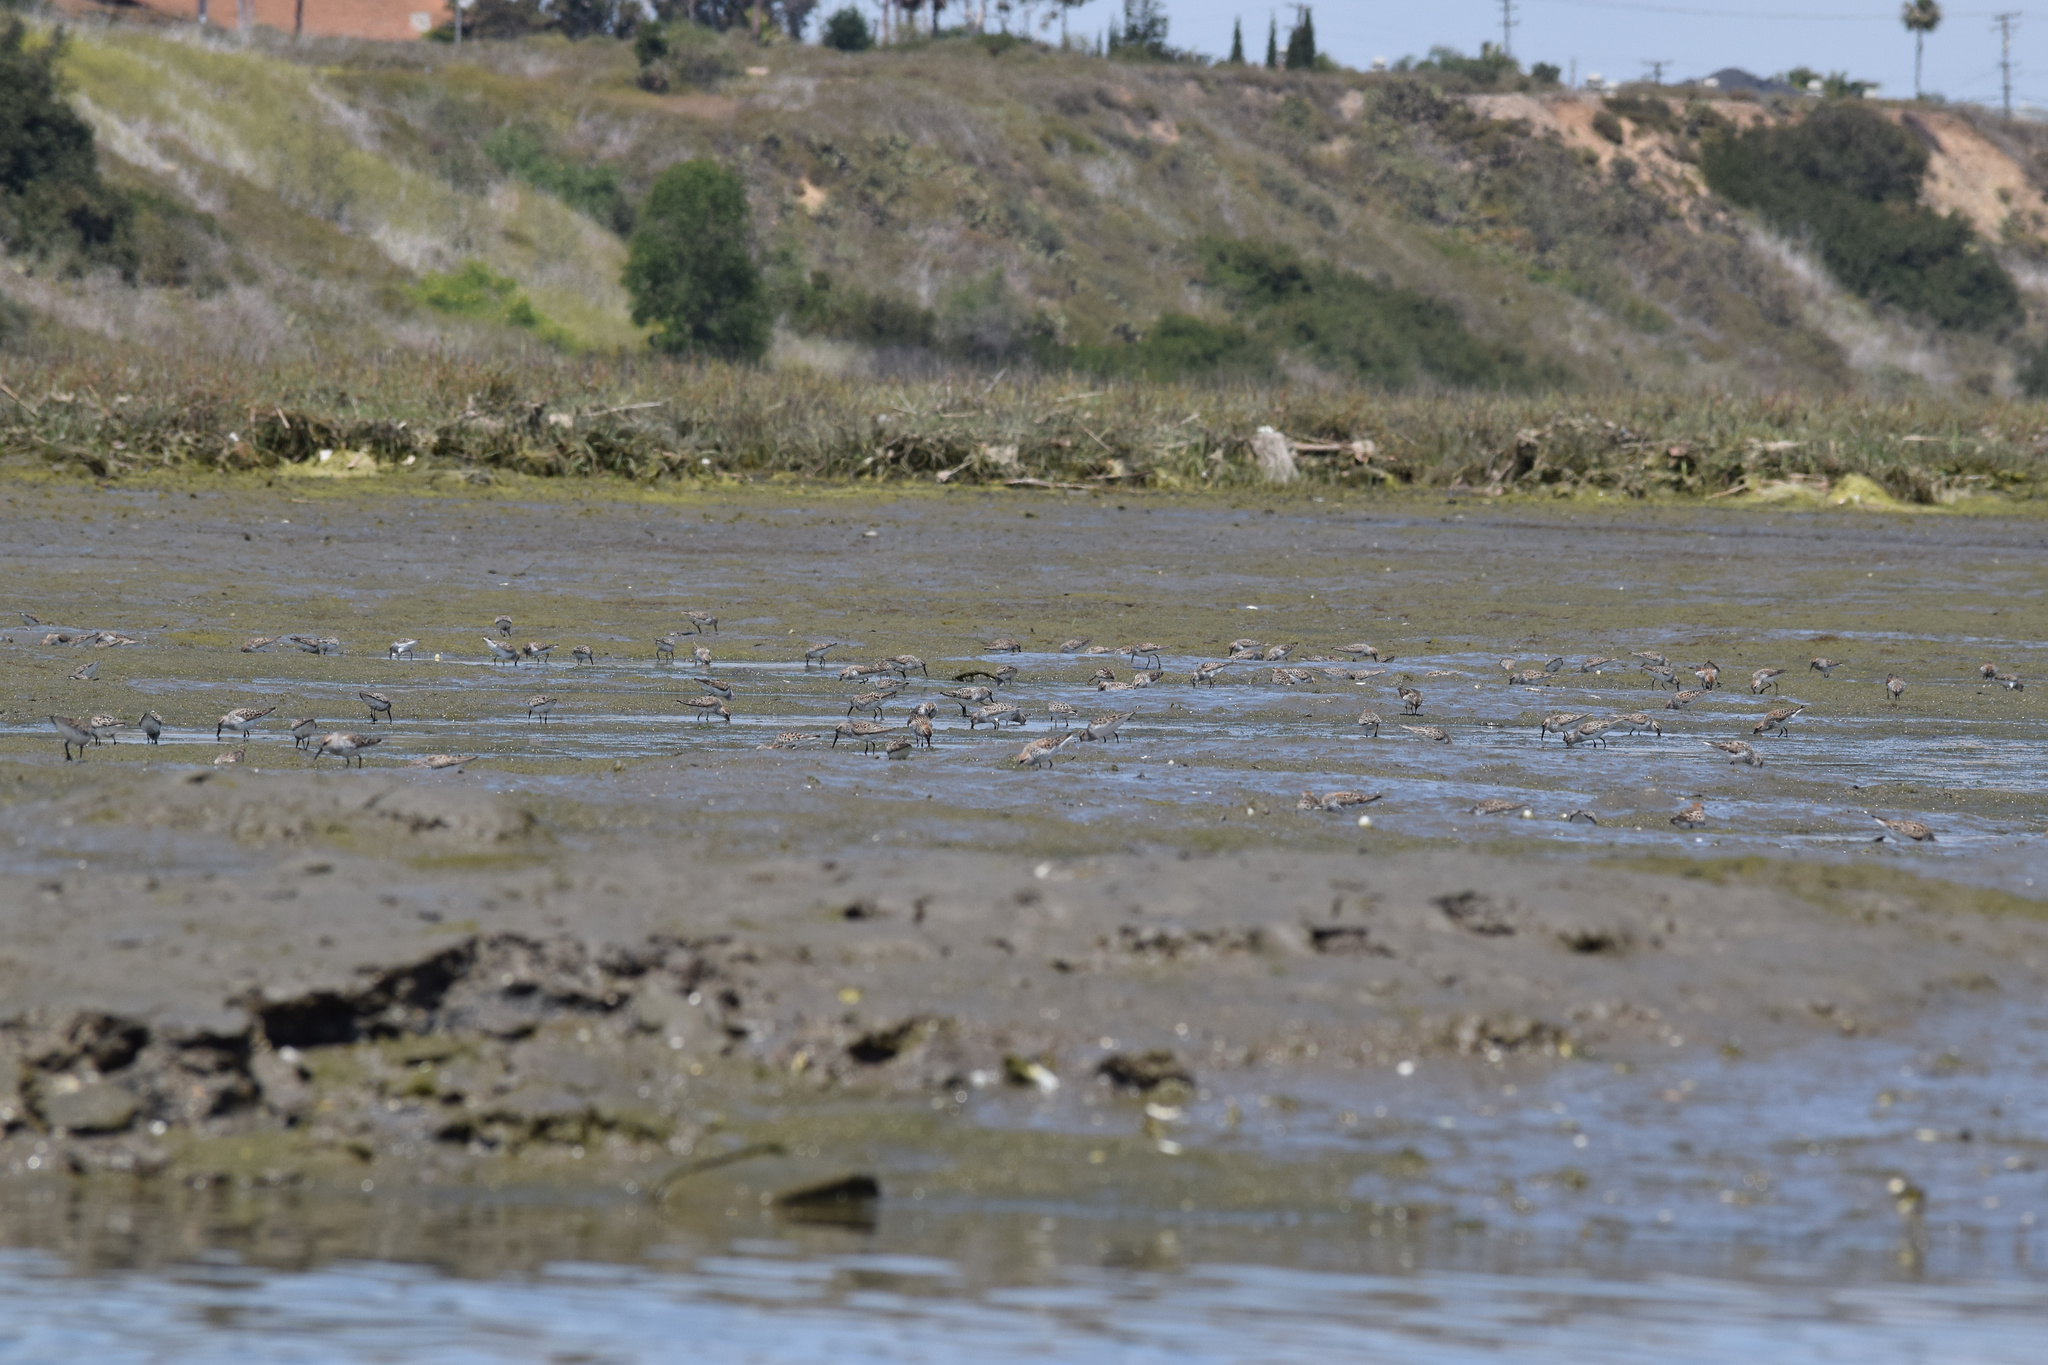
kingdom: Animalia
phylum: Chordata
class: Aves
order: Charadriiformes
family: Scolopacidae
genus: Calidris
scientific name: Calidris mauri
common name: Western sandpiper
